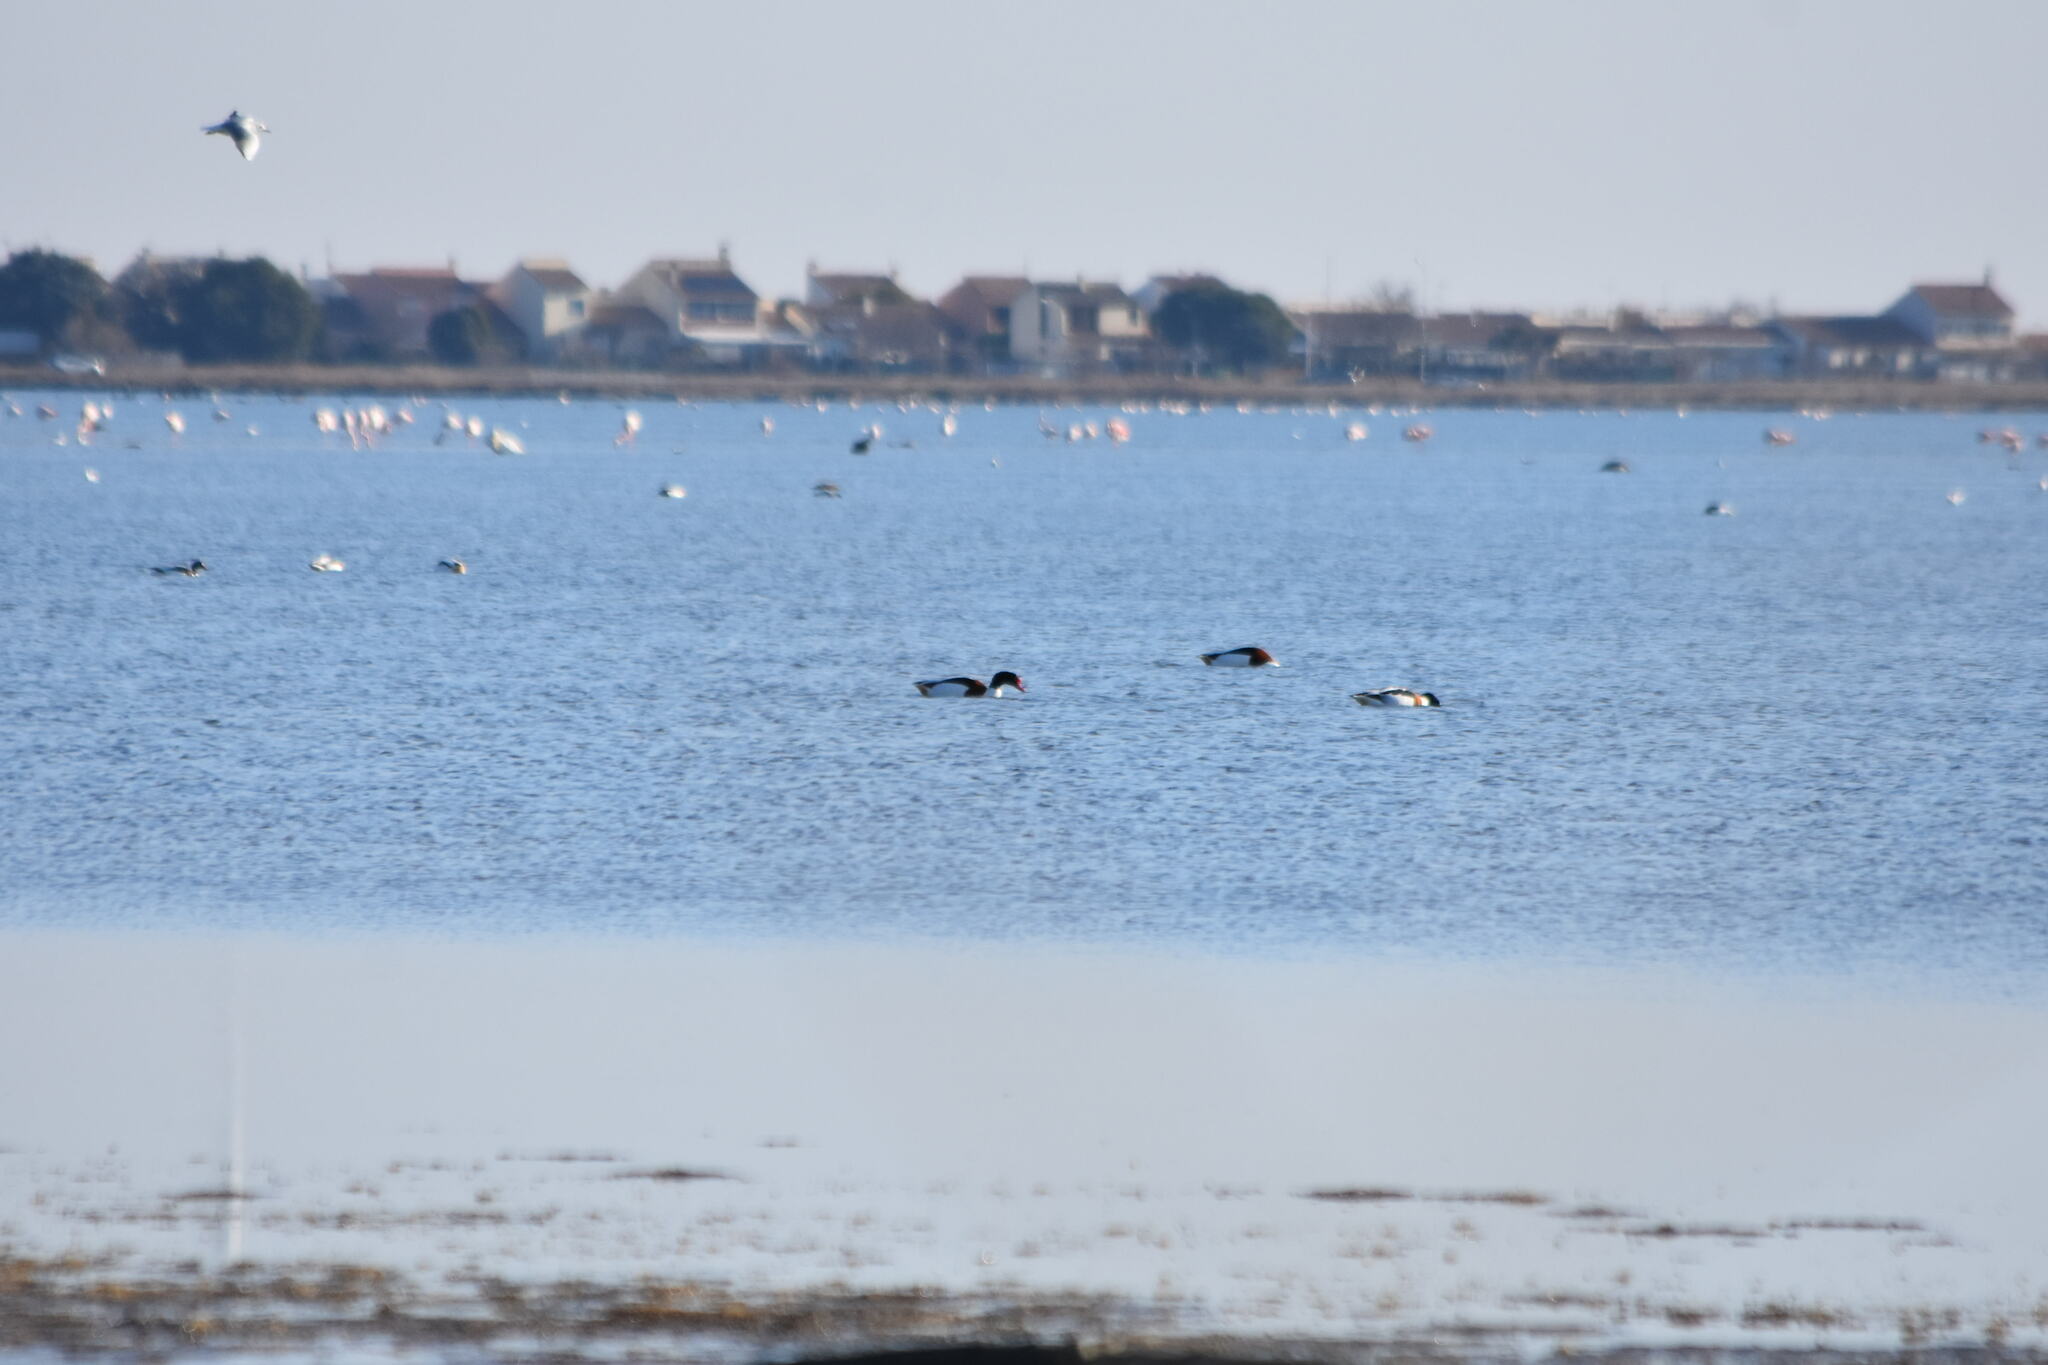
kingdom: Animalia
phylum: Chordata
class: Aves
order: Anseriformes
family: Anatidae
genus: Tadorna
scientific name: Tadorna tadorna
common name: Common shelduck
